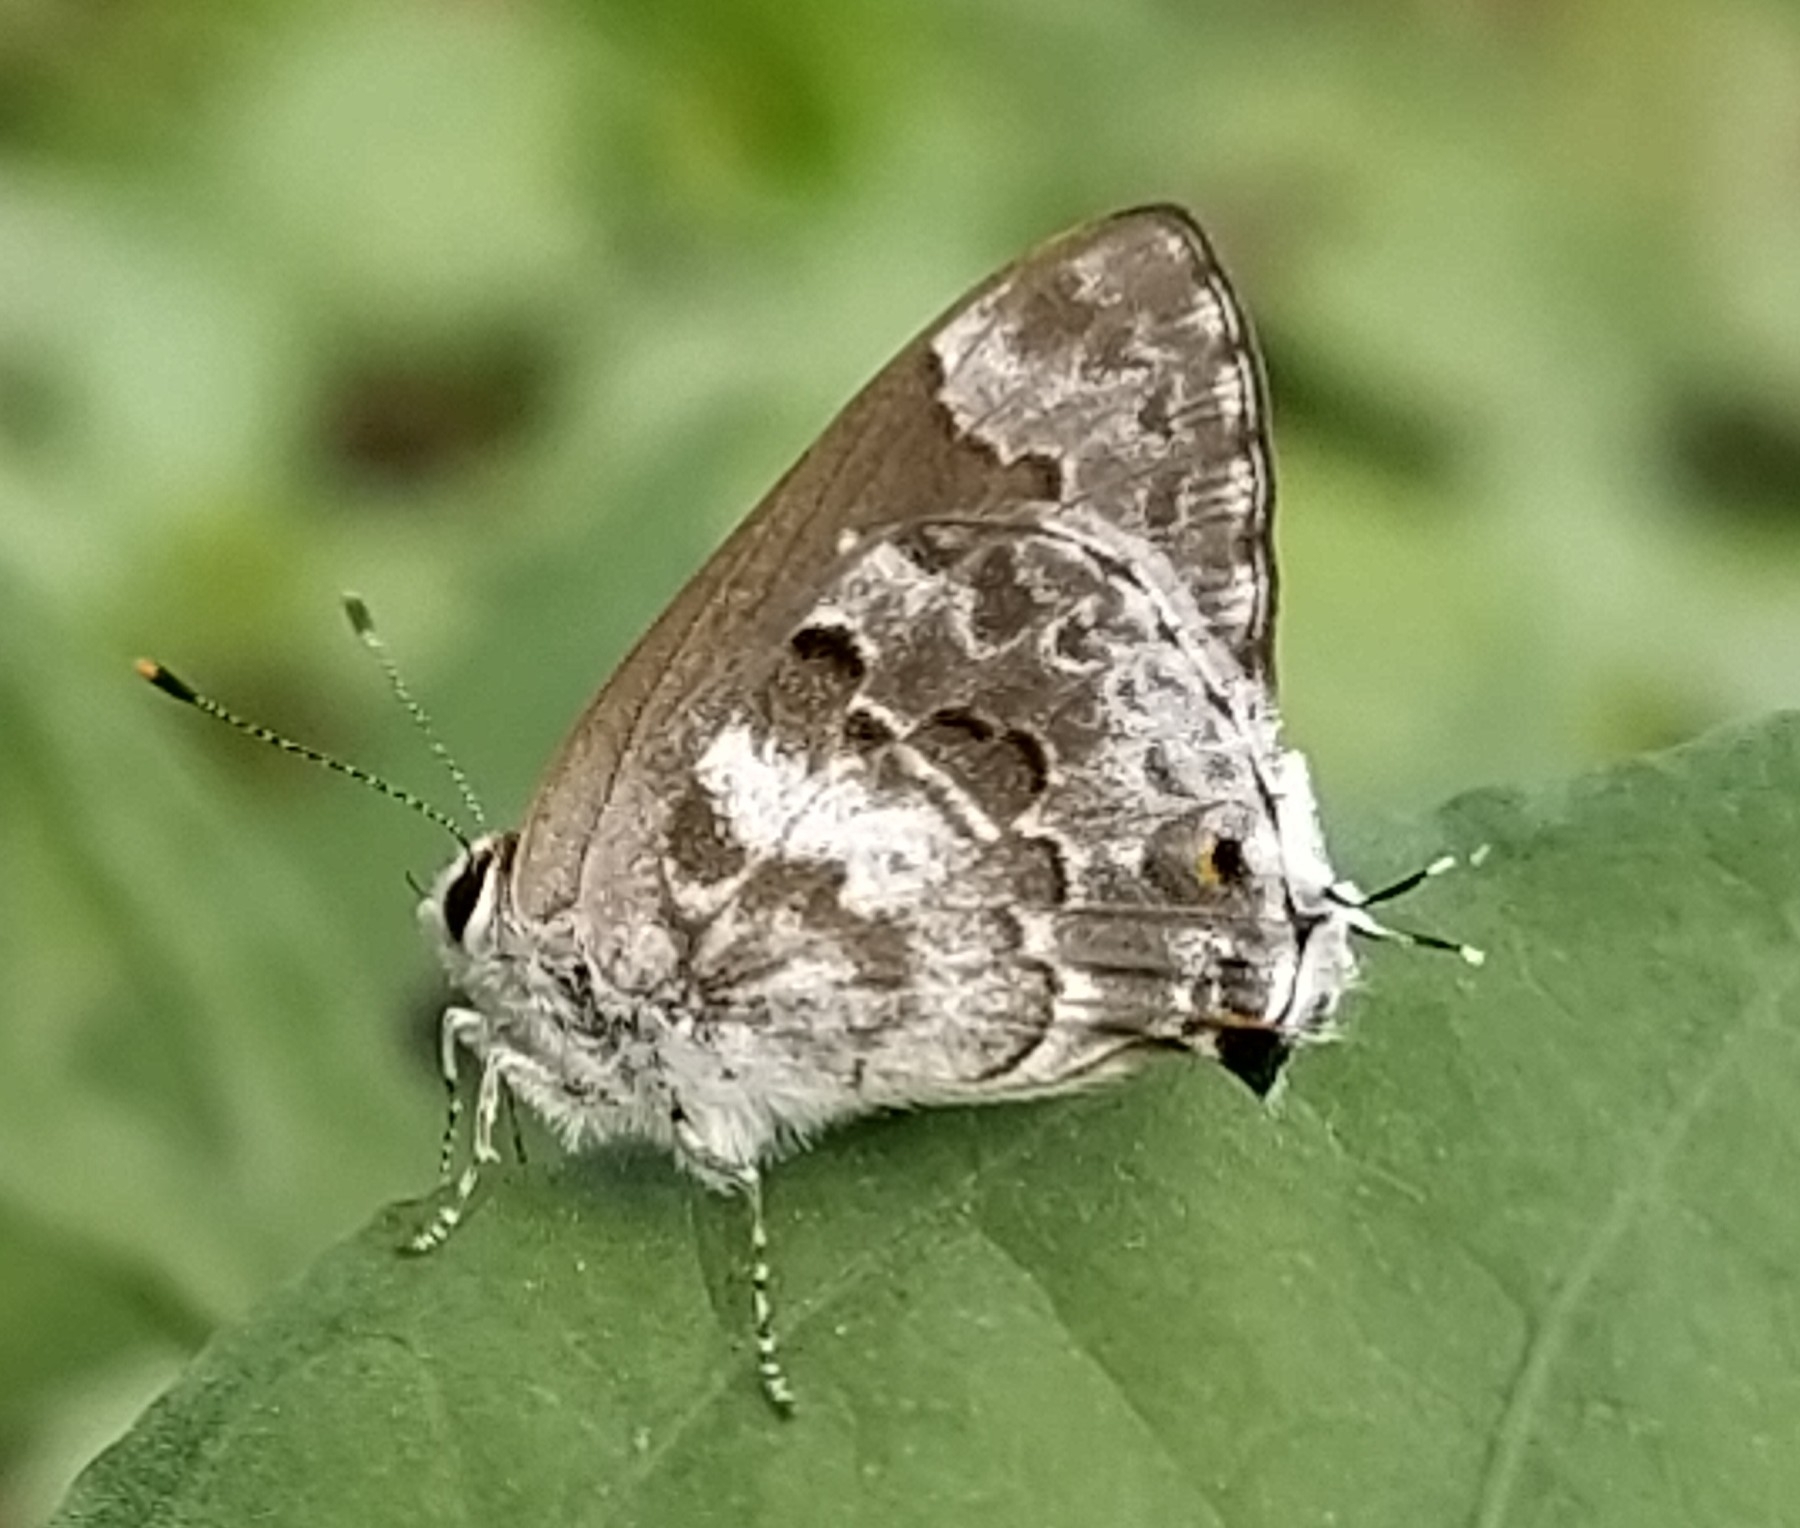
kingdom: Animalia
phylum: Arthropoda
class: Insecta
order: Lepidoptera
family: Lycaenidae
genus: Strymon
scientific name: Strymon mulucha
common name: Mottled scrub-hairstreak
